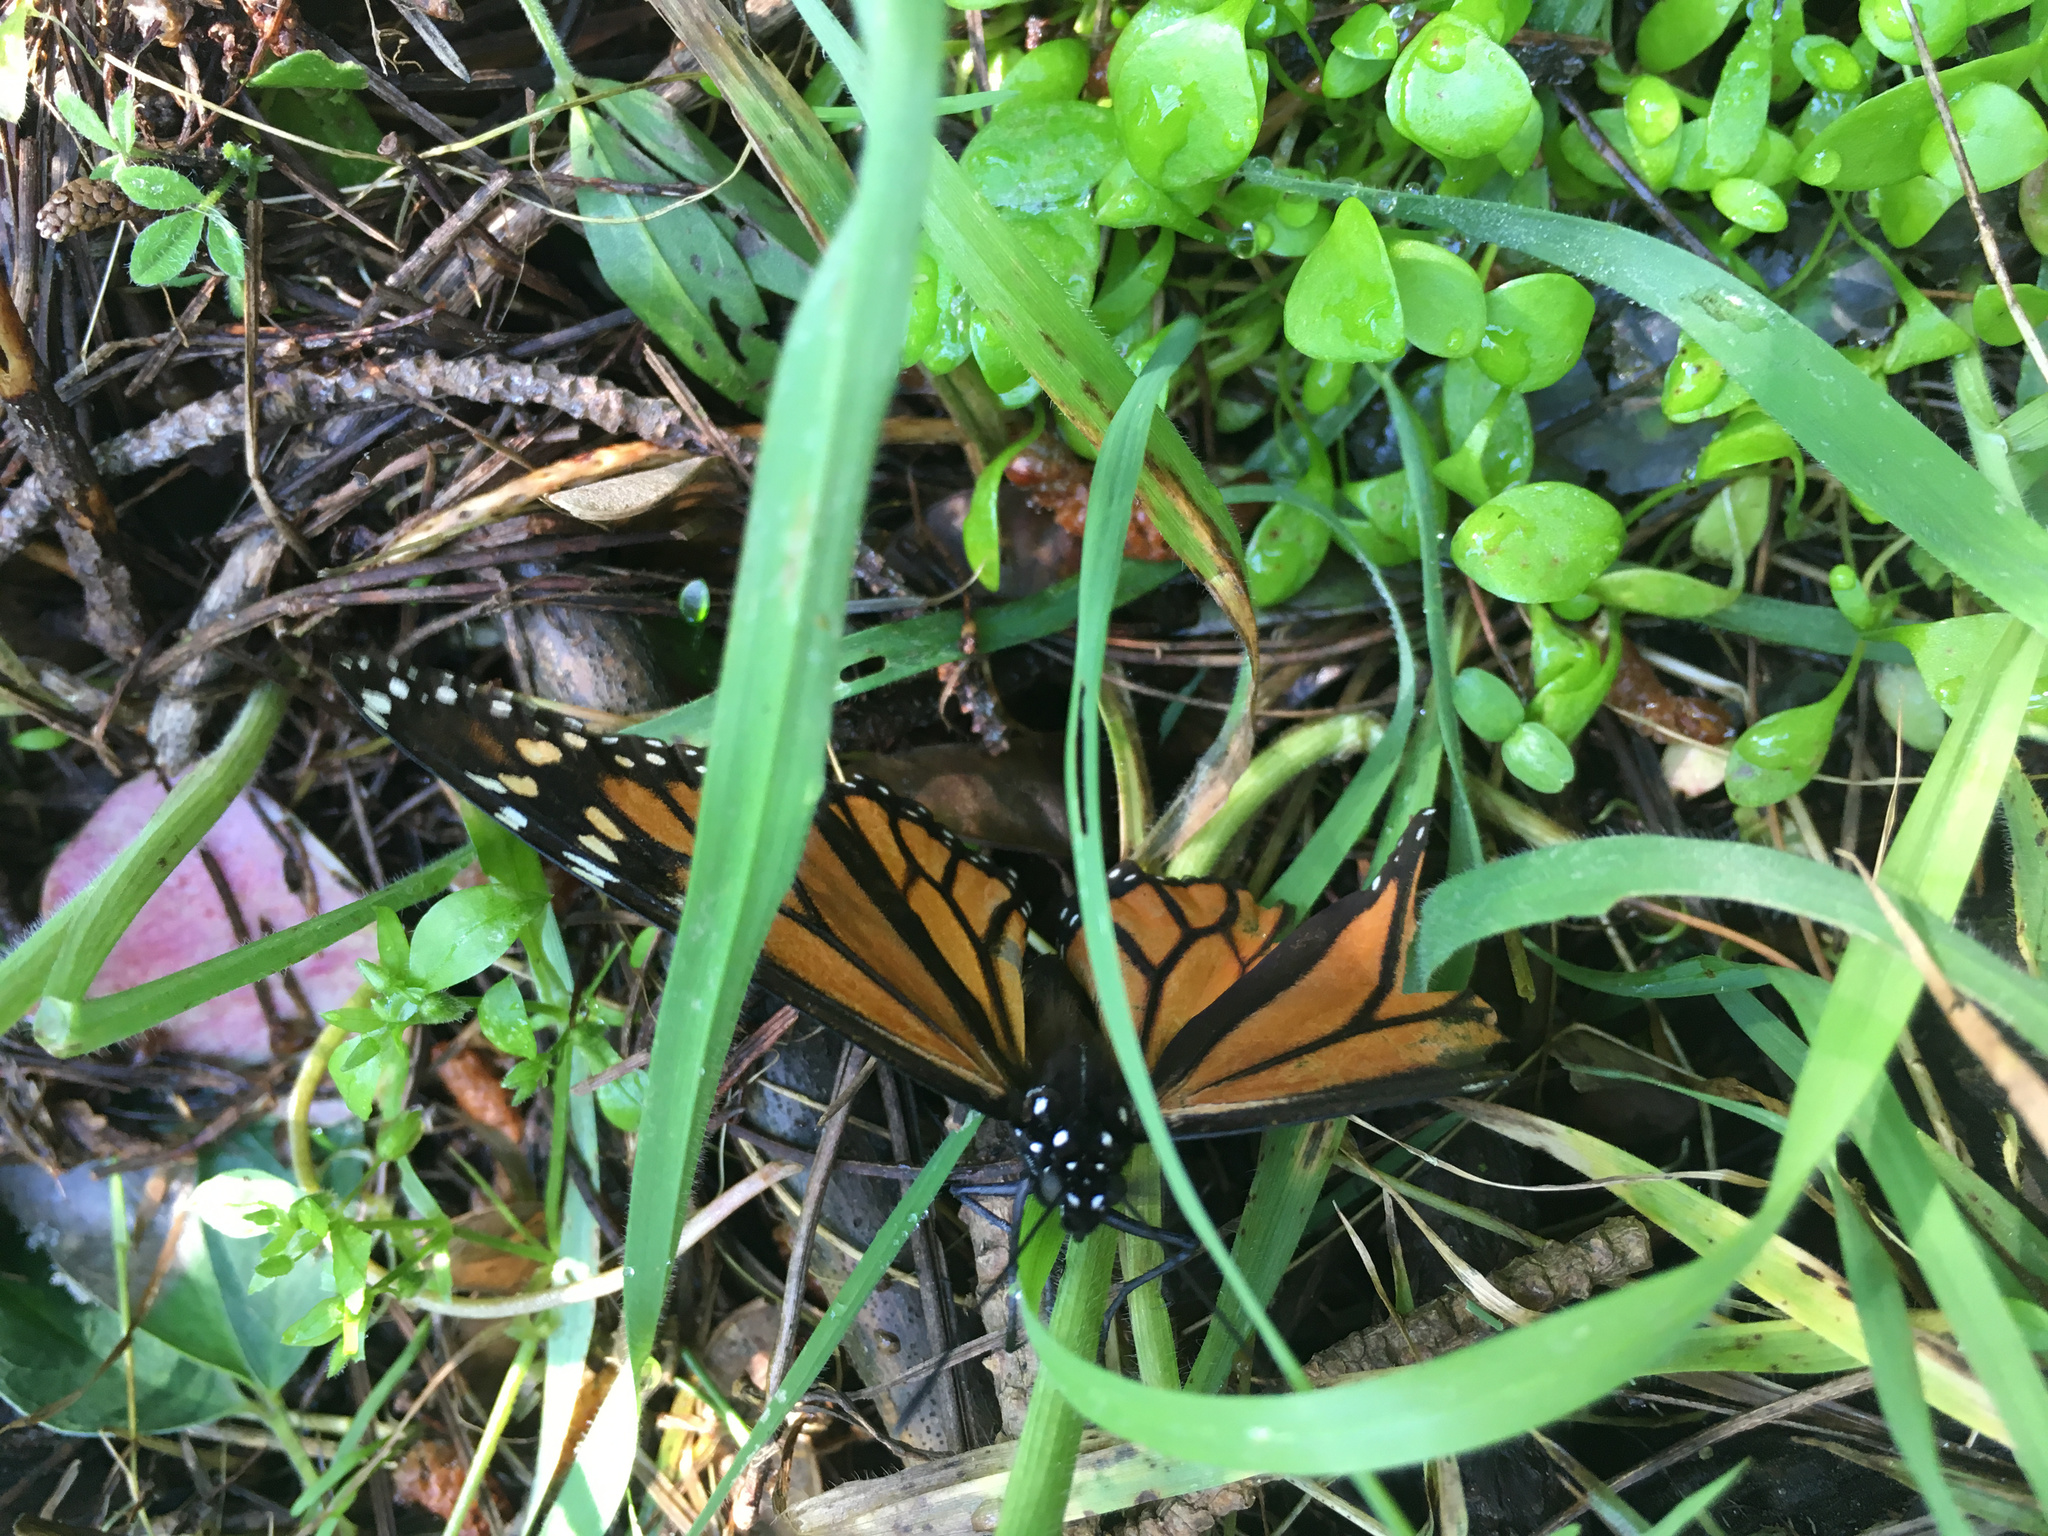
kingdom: Animalia
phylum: Arthropoda
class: Insecta
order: Lepidoptera
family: Nymphalidae
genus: Danaus
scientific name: Danaus plexippus
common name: Monarch
